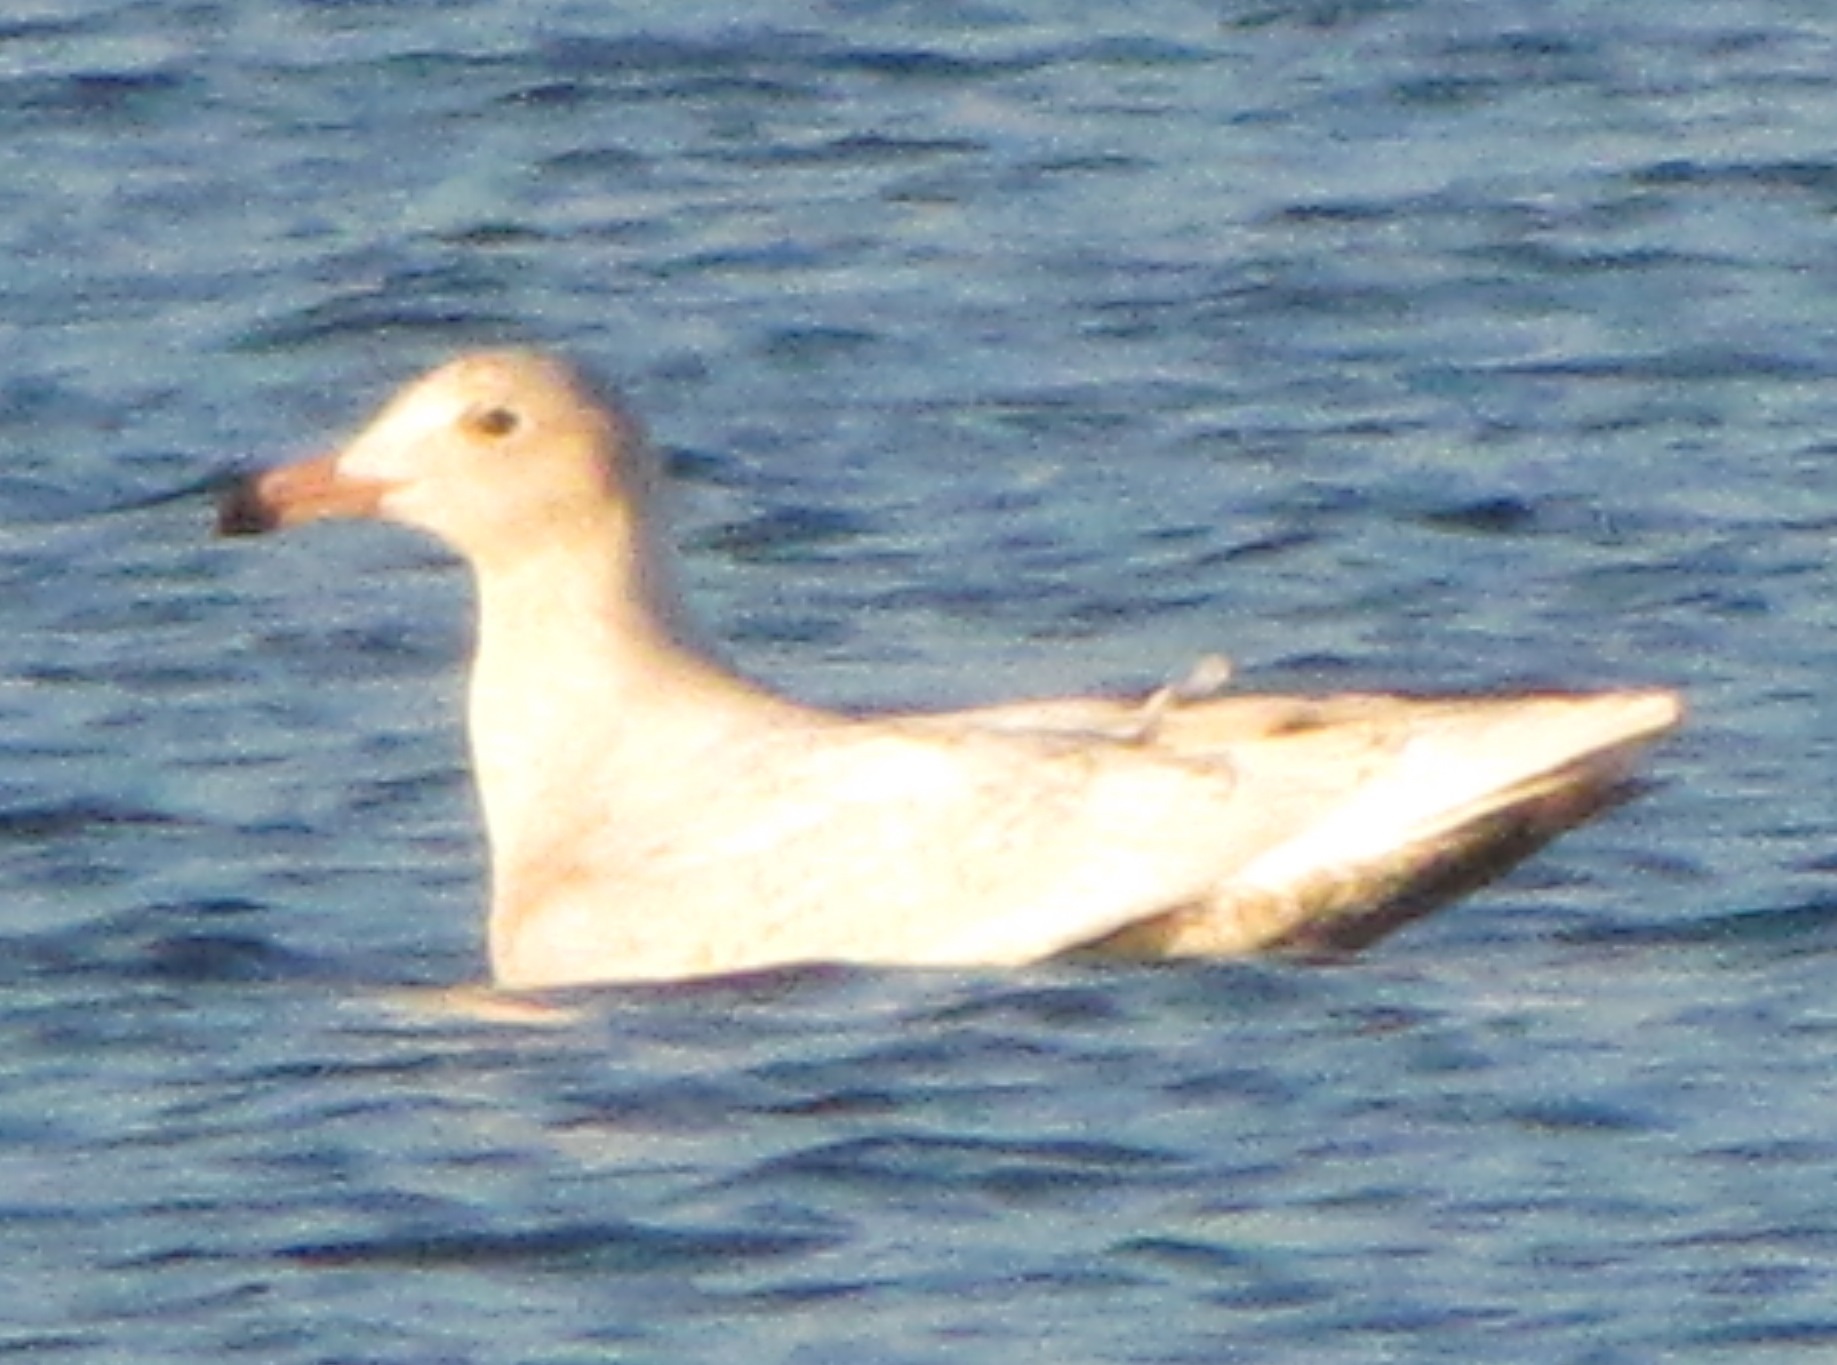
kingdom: Animalia
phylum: Chordata
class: Aves
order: Charadriiformes
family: Laridae
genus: Larus
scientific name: Larus hyperboreus
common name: Glaucous gull
